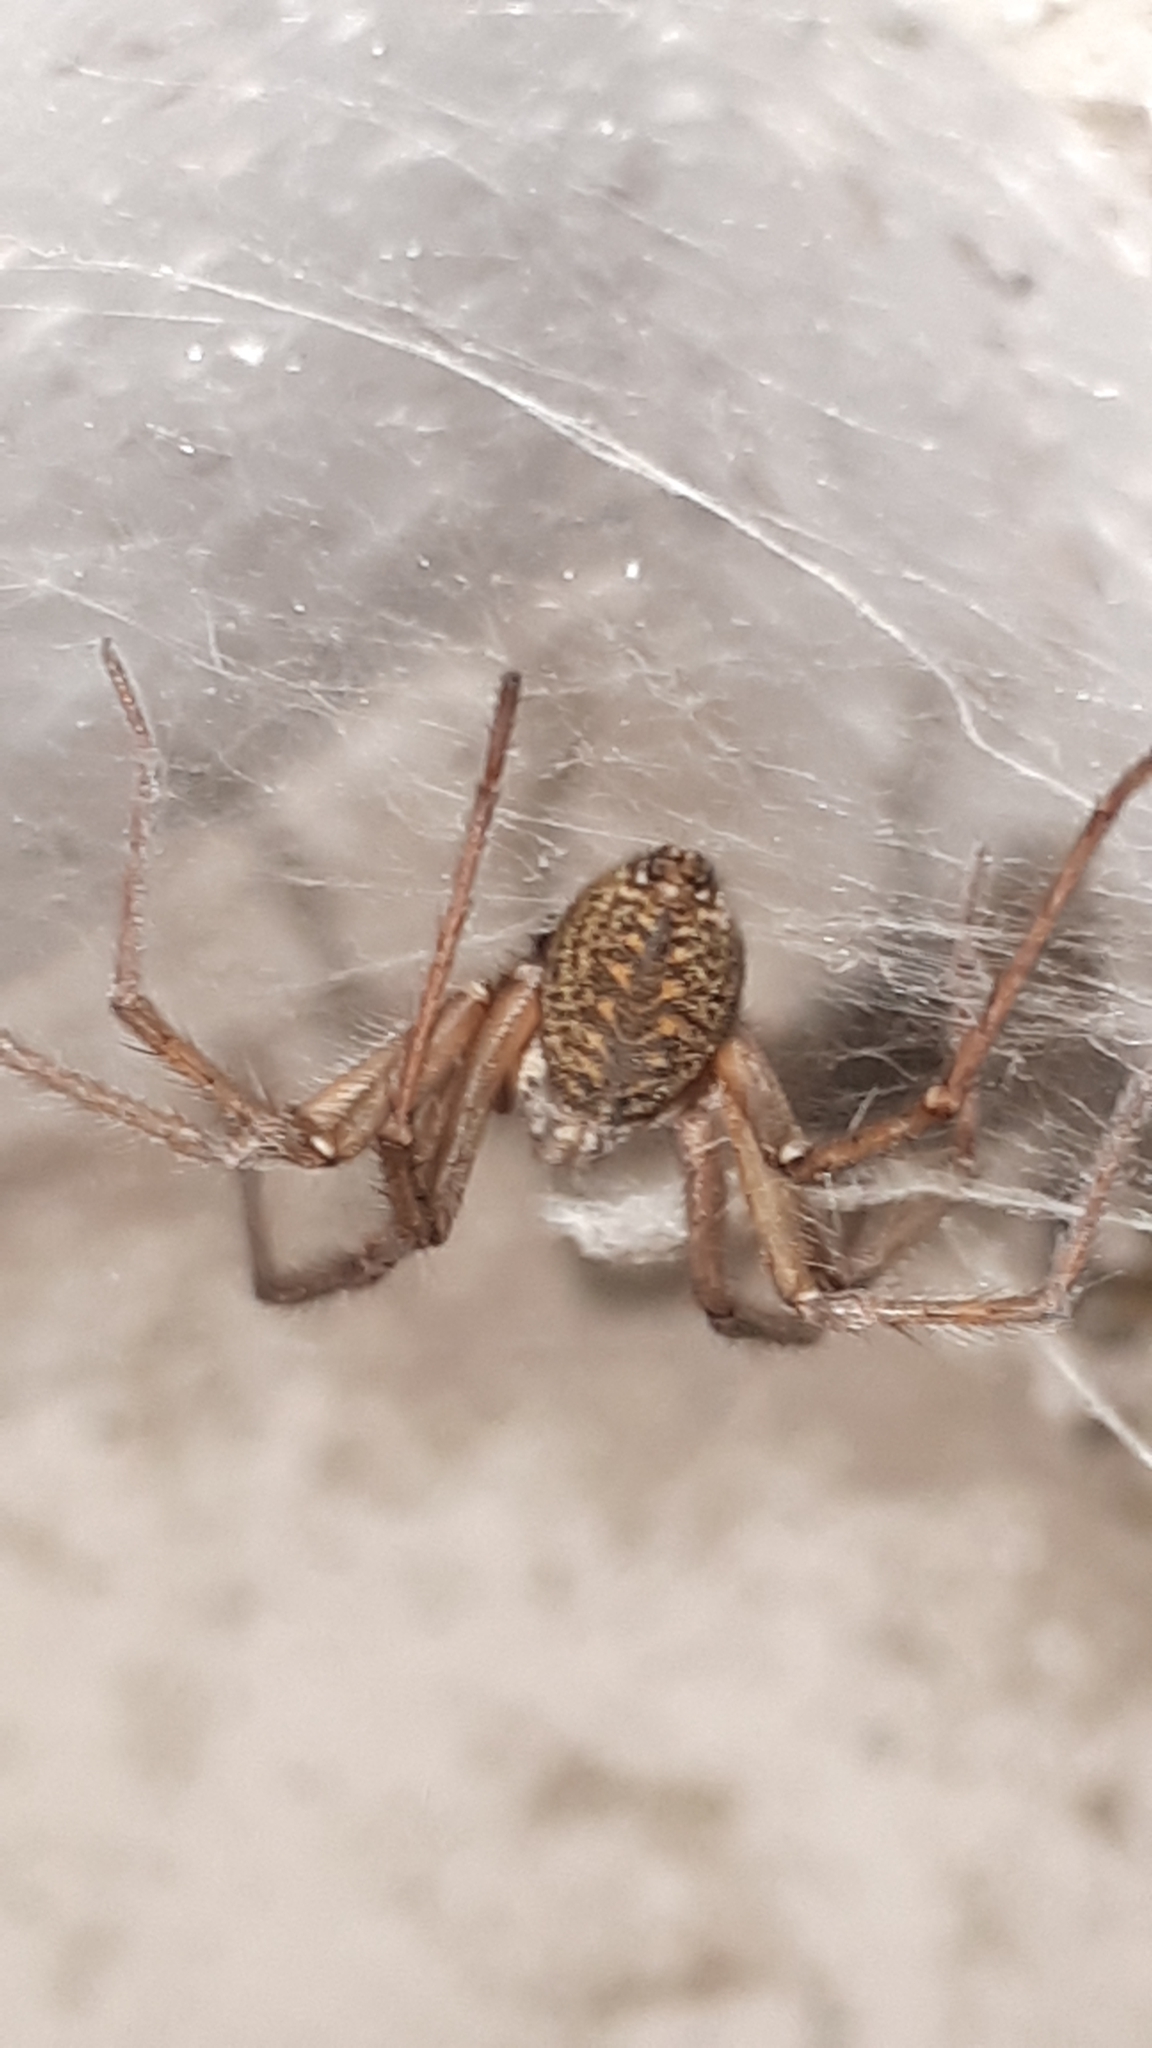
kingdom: Animalia
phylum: Arthropoda
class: Arachnida
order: Araneae
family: Agelenidae
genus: Eratigena
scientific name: Eratigena atrica
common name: Giant house spider
